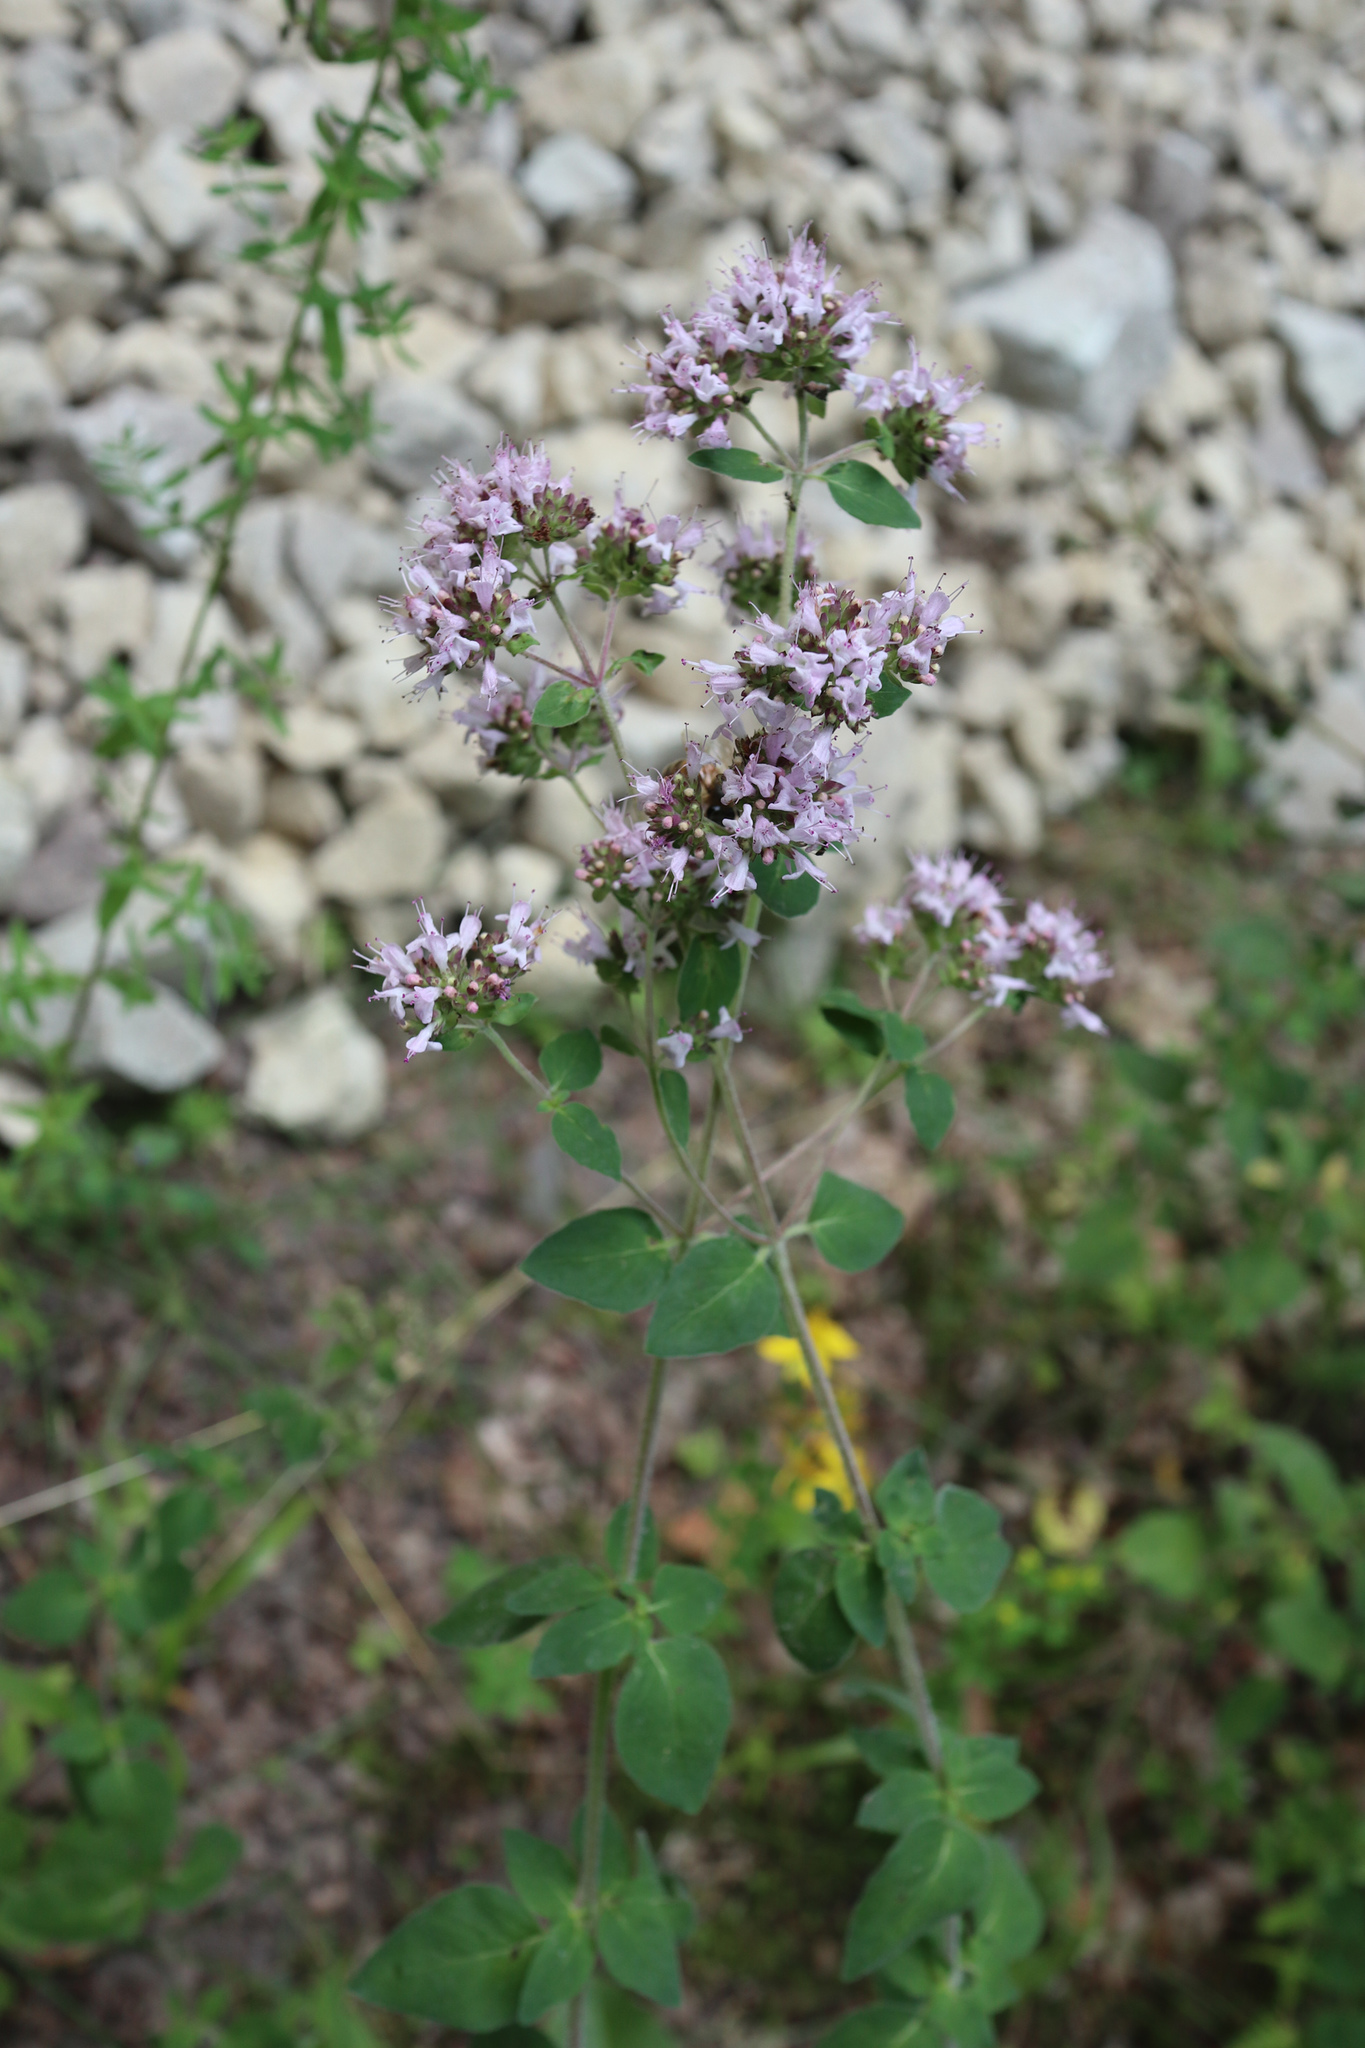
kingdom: Plantae
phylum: Tracheophyta
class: Magnoliopsida
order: Lamiales
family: Lamiaceae
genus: Origanum
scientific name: Origanum vulgare
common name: Wild marjoram
